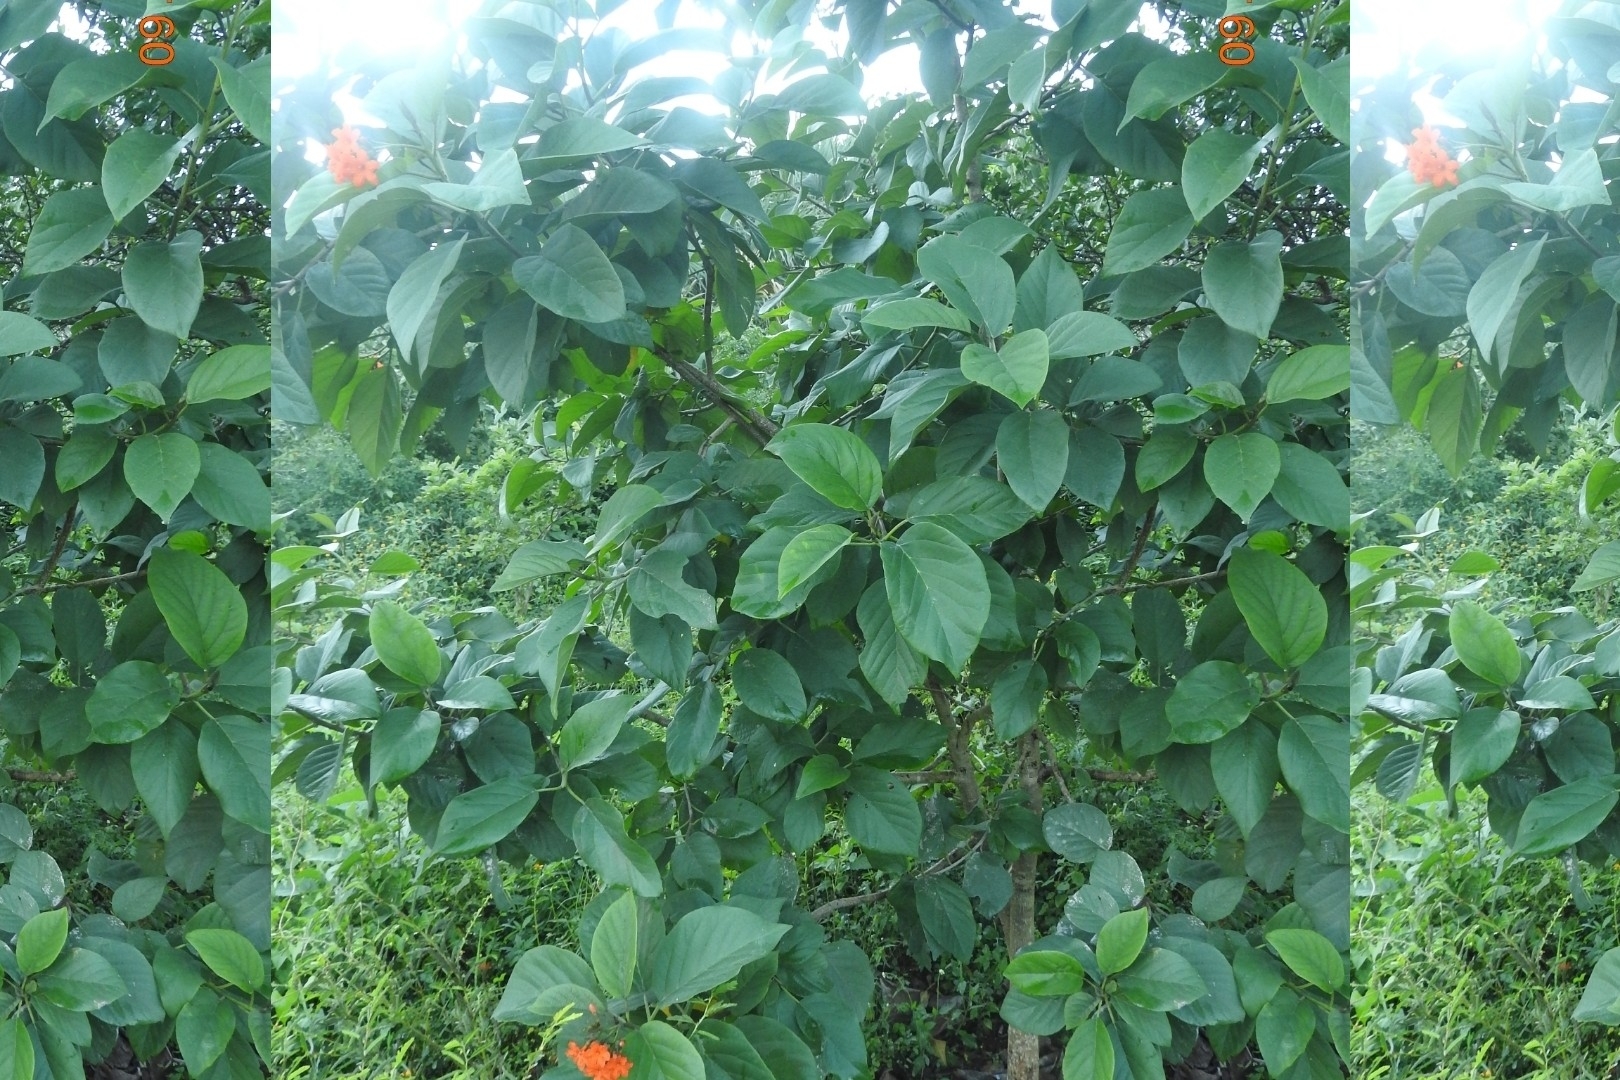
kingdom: Plantae
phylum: Tracheophyta
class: Magnoliopsida
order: Boraginales
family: Cordiaceae
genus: Cordia
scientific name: Cordia sebestena
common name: Largeleaf geigertree
